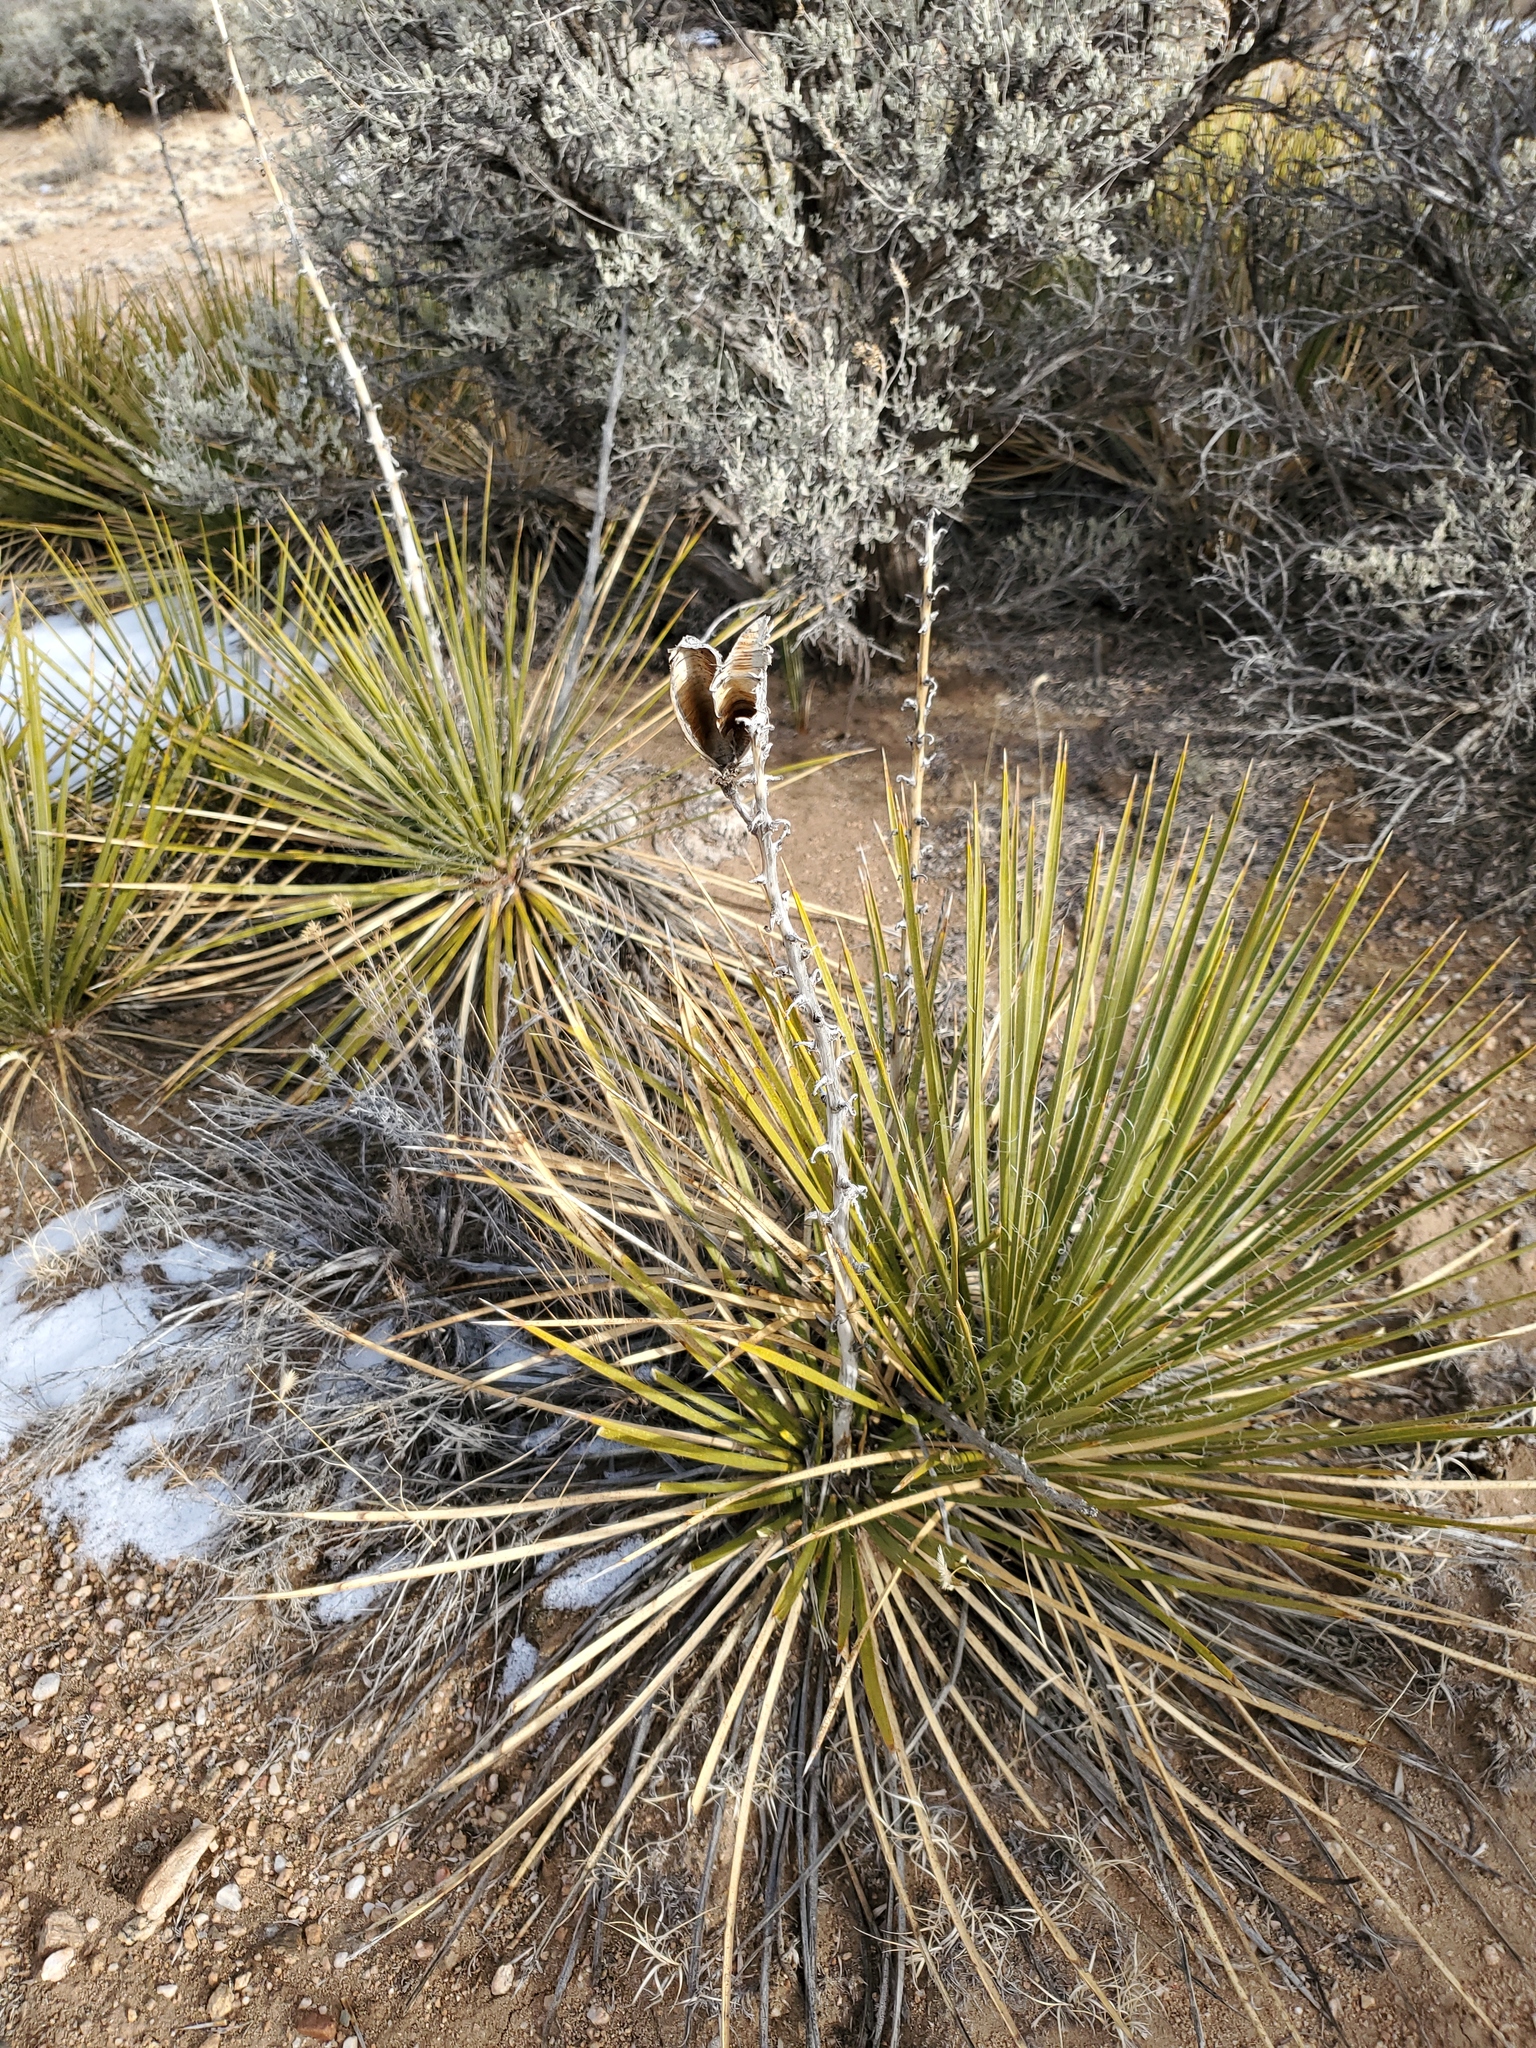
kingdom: Plantae
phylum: Tracheophyta
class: Liliopsida
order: Asparagales
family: Asparagaceae
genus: Yucca
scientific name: Yucca glauca
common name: Great plains yucca
